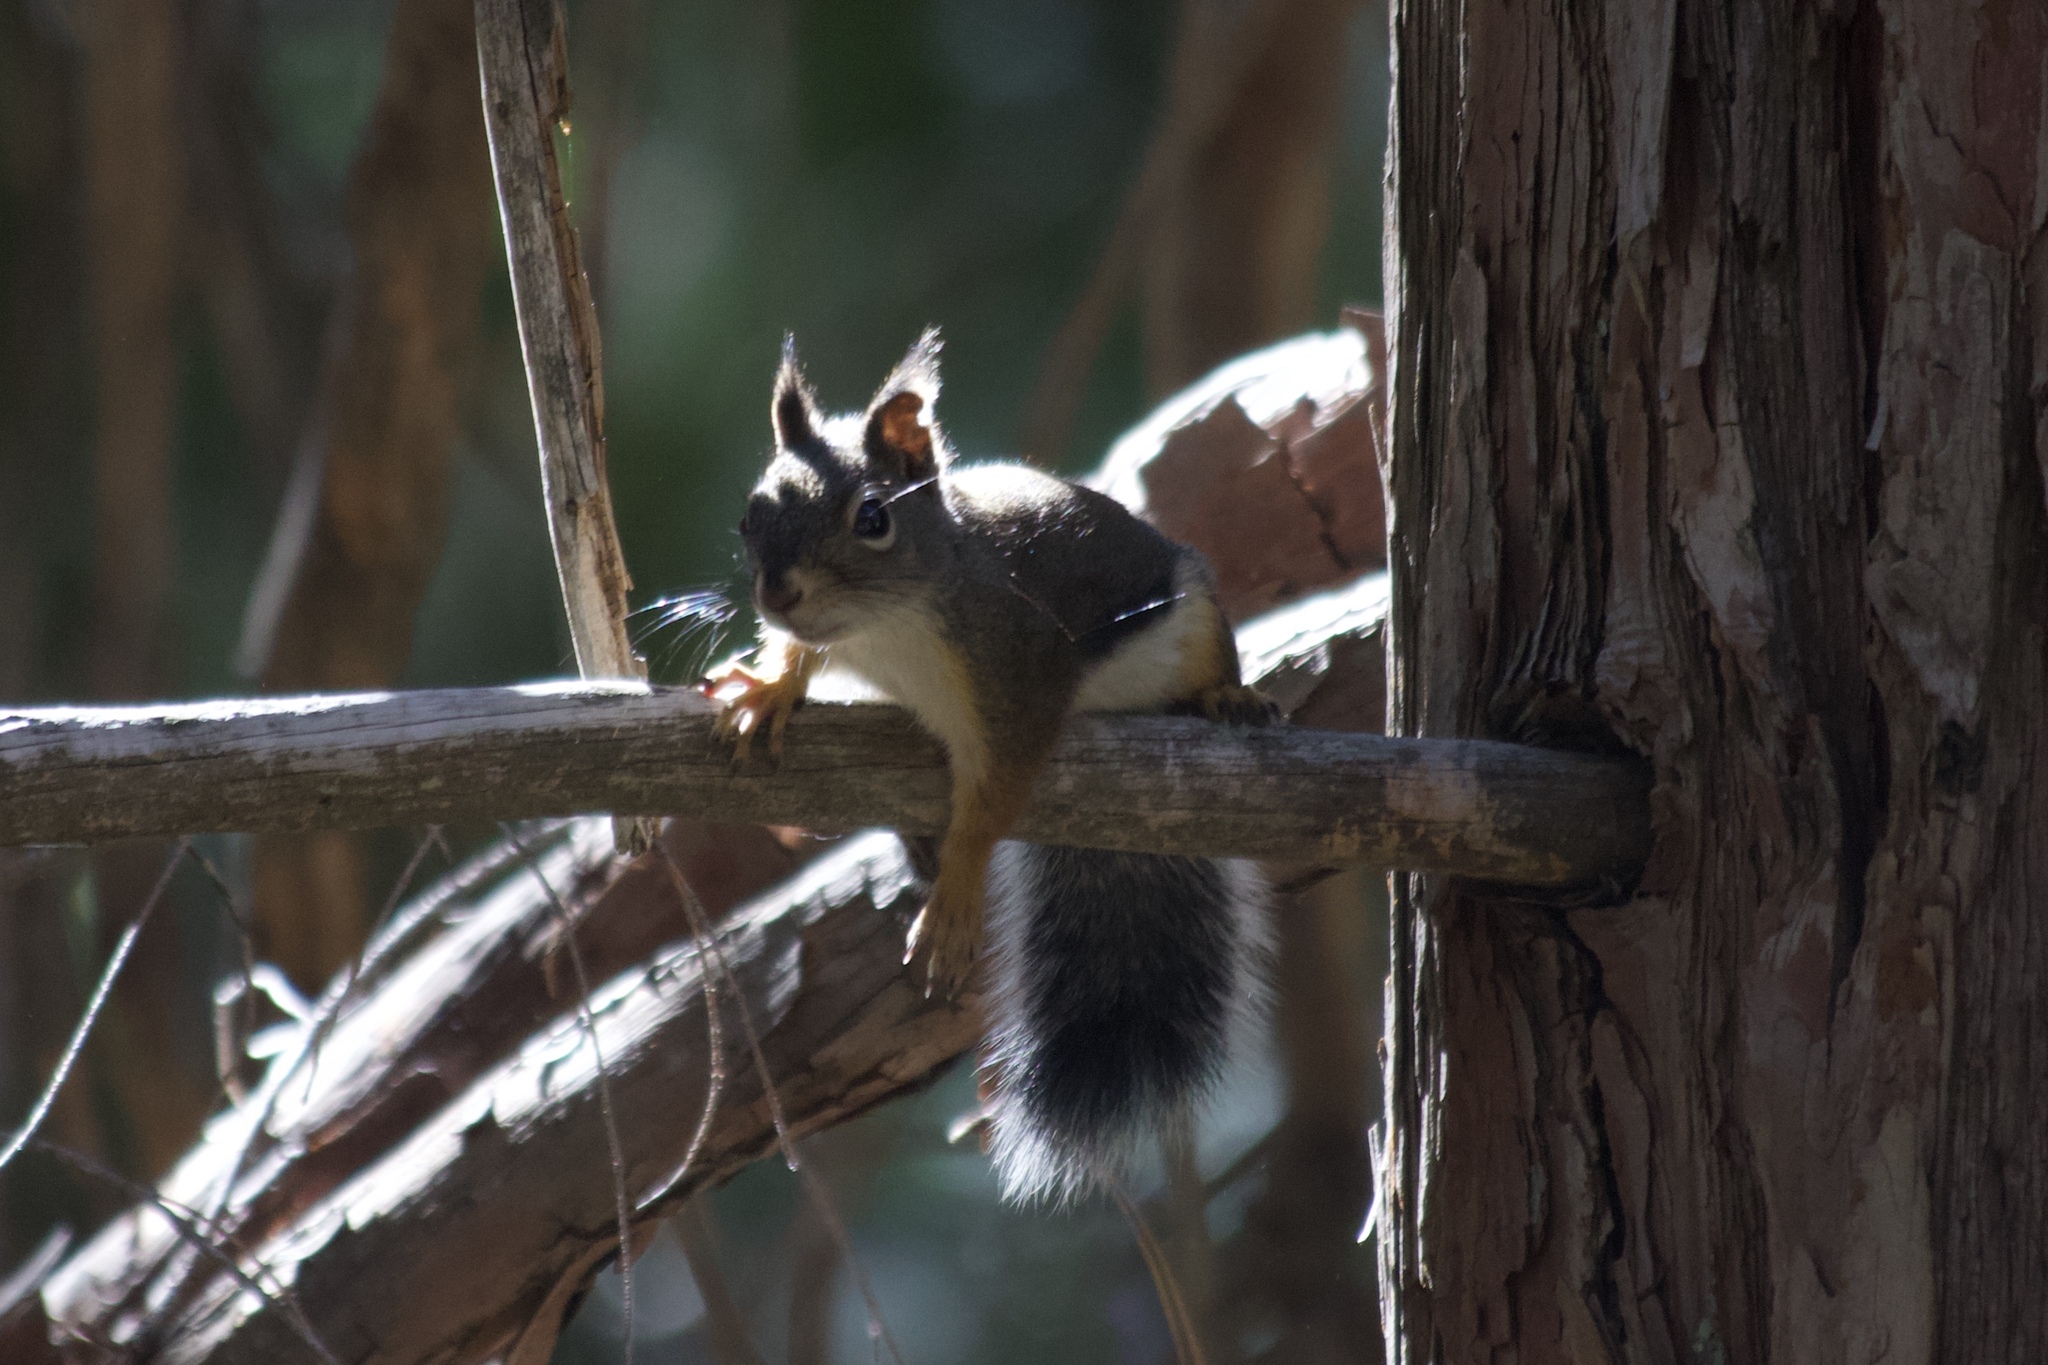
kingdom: Animalia
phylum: Chordata
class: Mammalia
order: Rodentia
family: Sciuridae
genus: Tamiasciurus
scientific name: Tamiasciurus douglasii
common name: Douglas's squirrel
